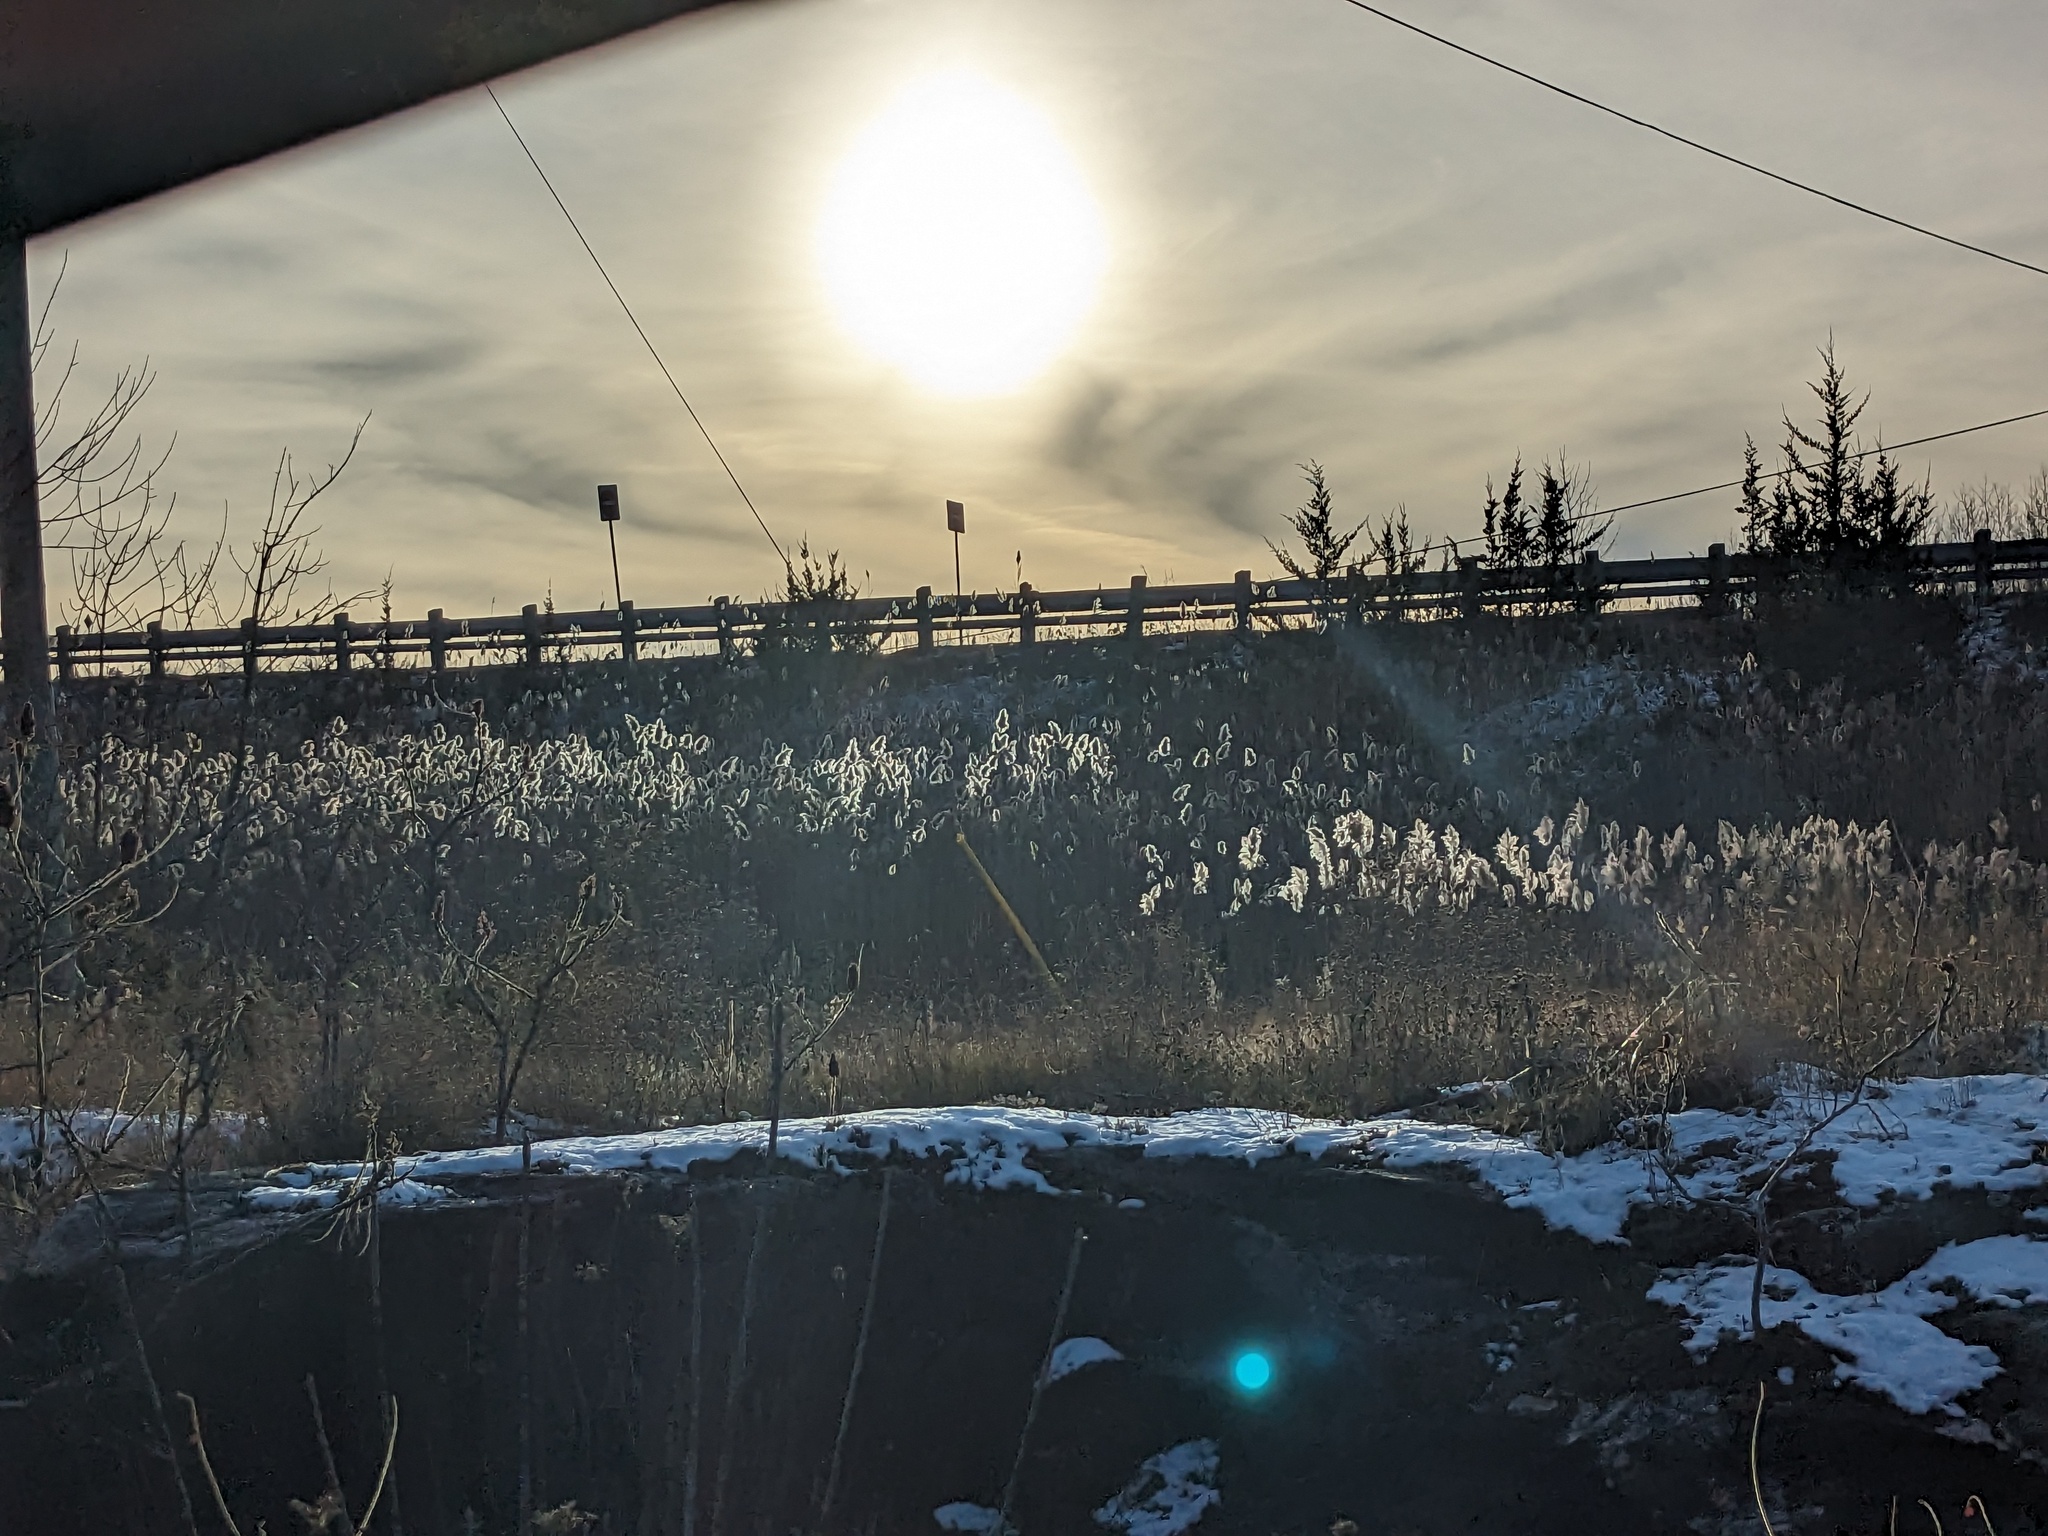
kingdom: Plantae
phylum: Tracheophyta
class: Liliopsida
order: Poales
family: Poaceae
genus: Phragmites
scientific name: Phragmites australis
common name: Common reed
